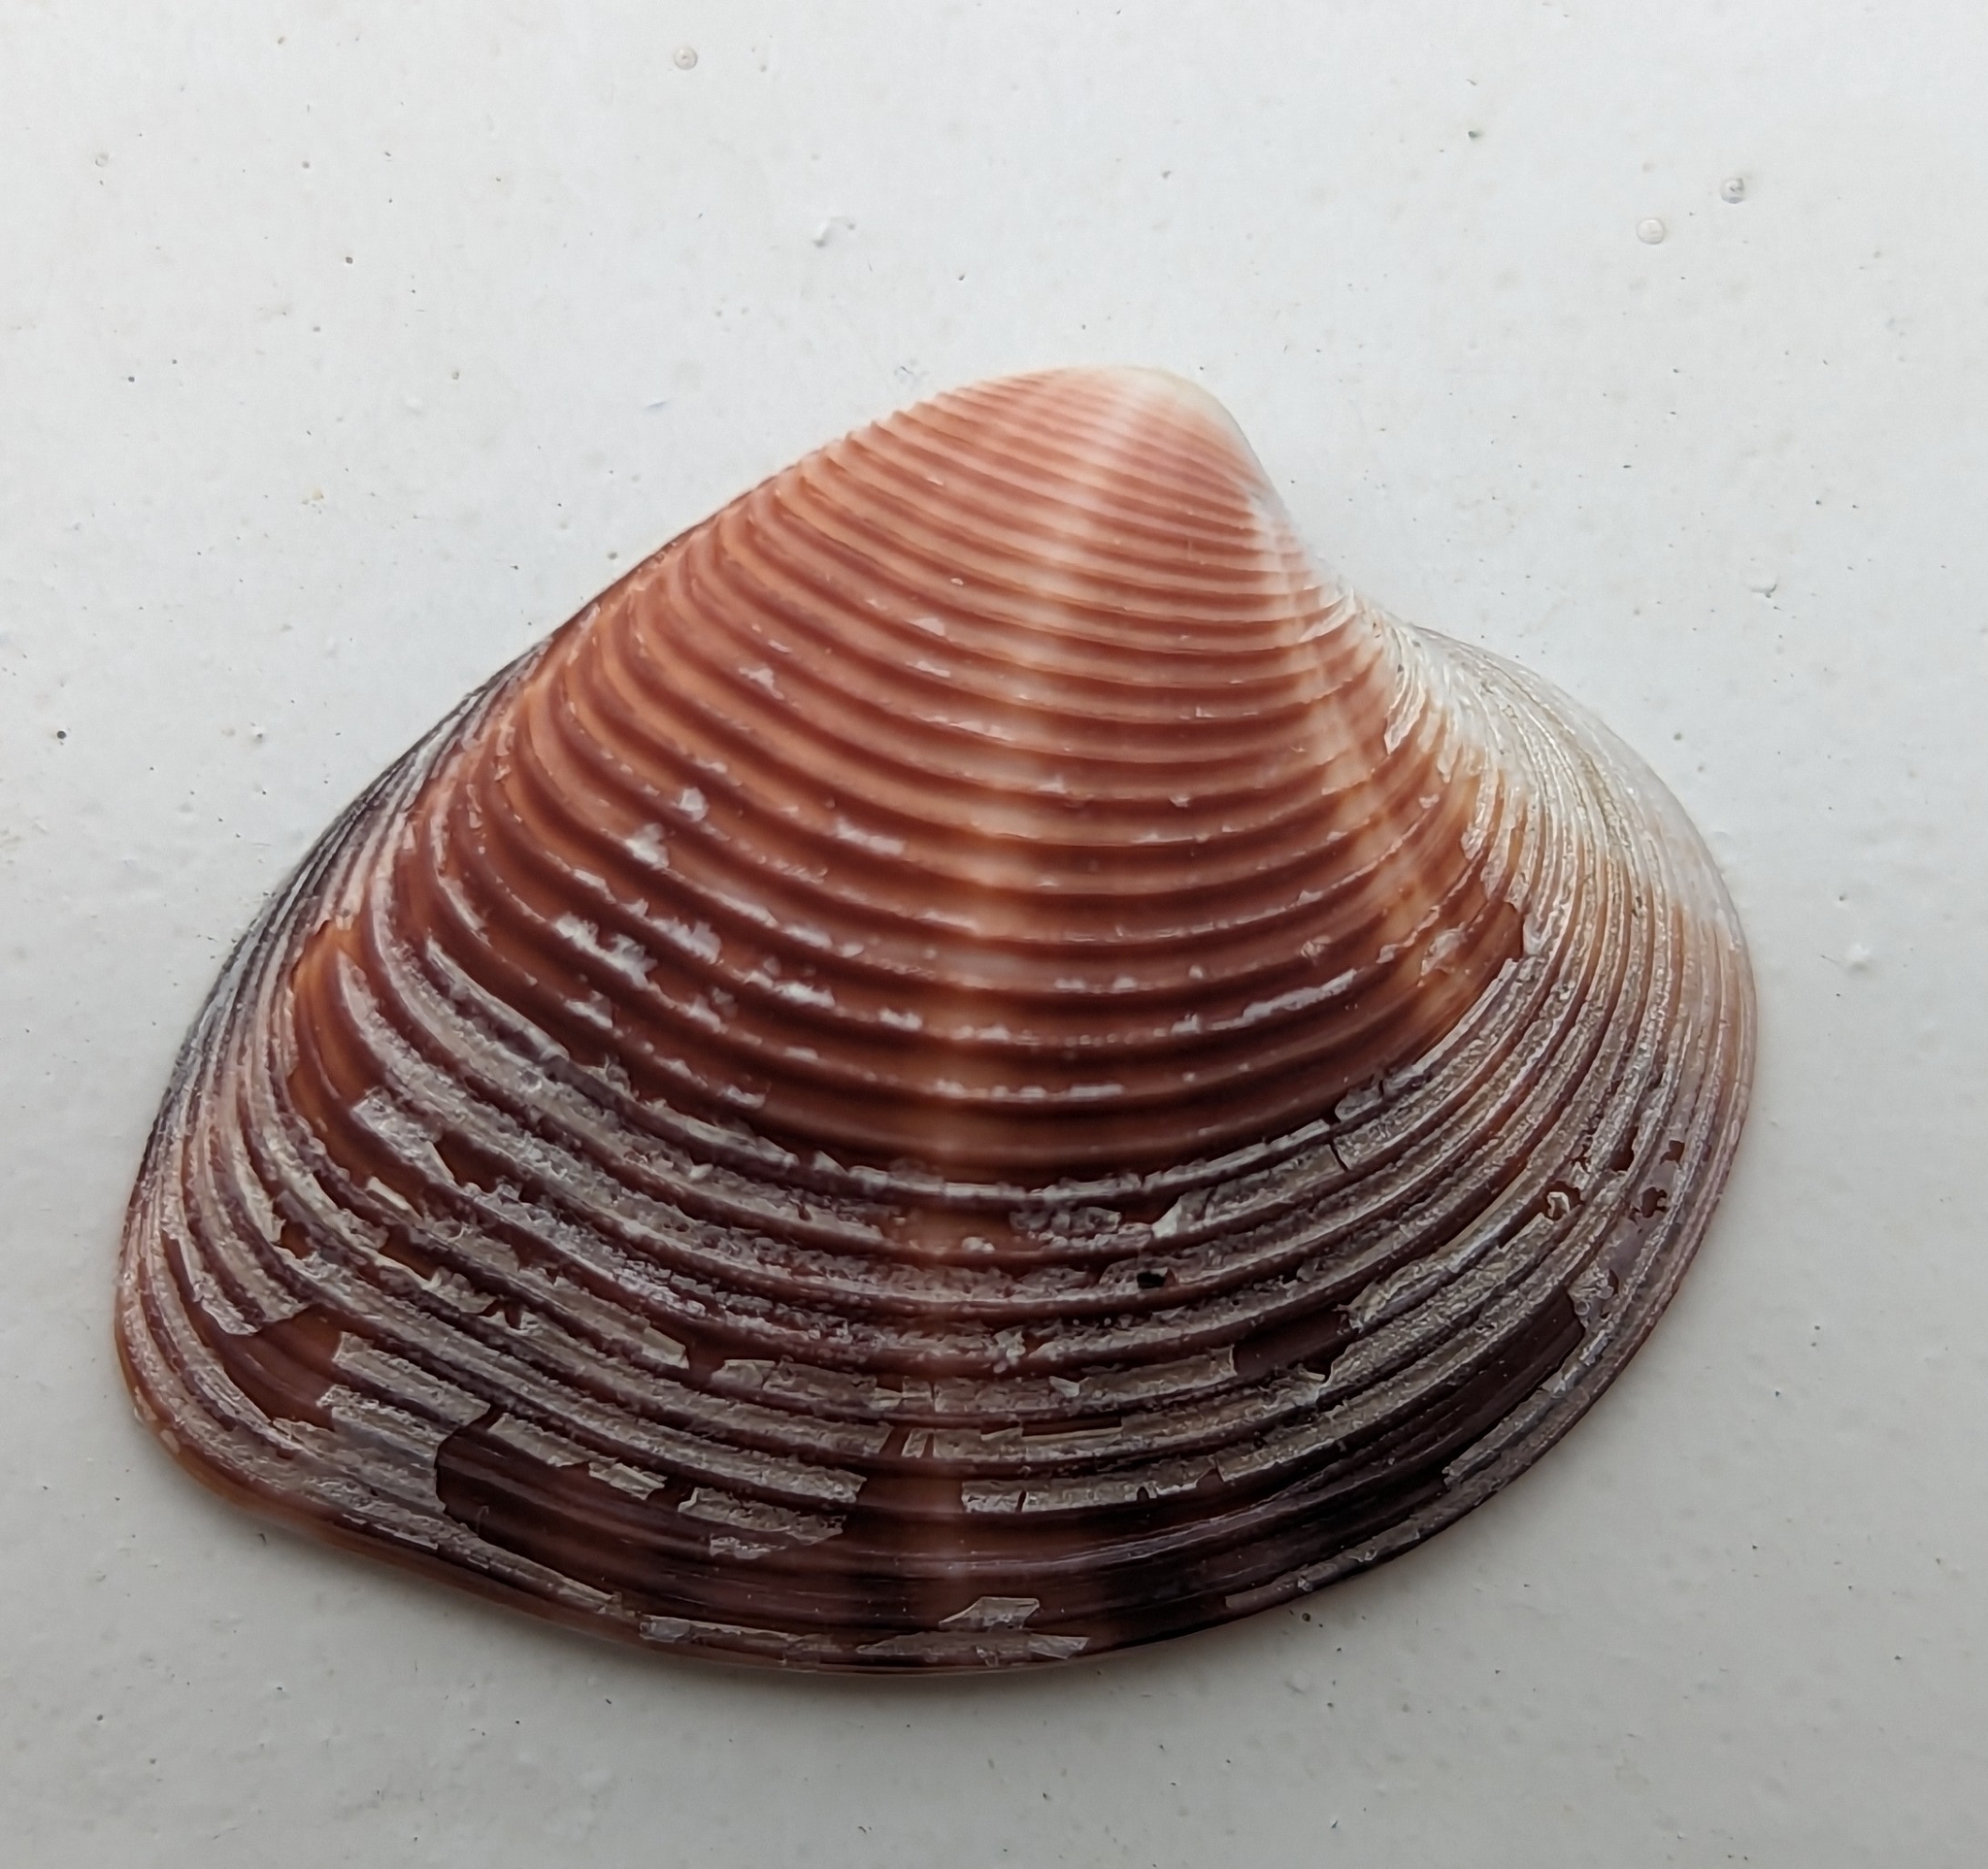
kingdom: Animalia
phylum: Mollusca
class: Bivalvia
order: Venerida
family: Veneridae
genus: Lamelliconcha
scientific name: Lamelliconcha concinna
